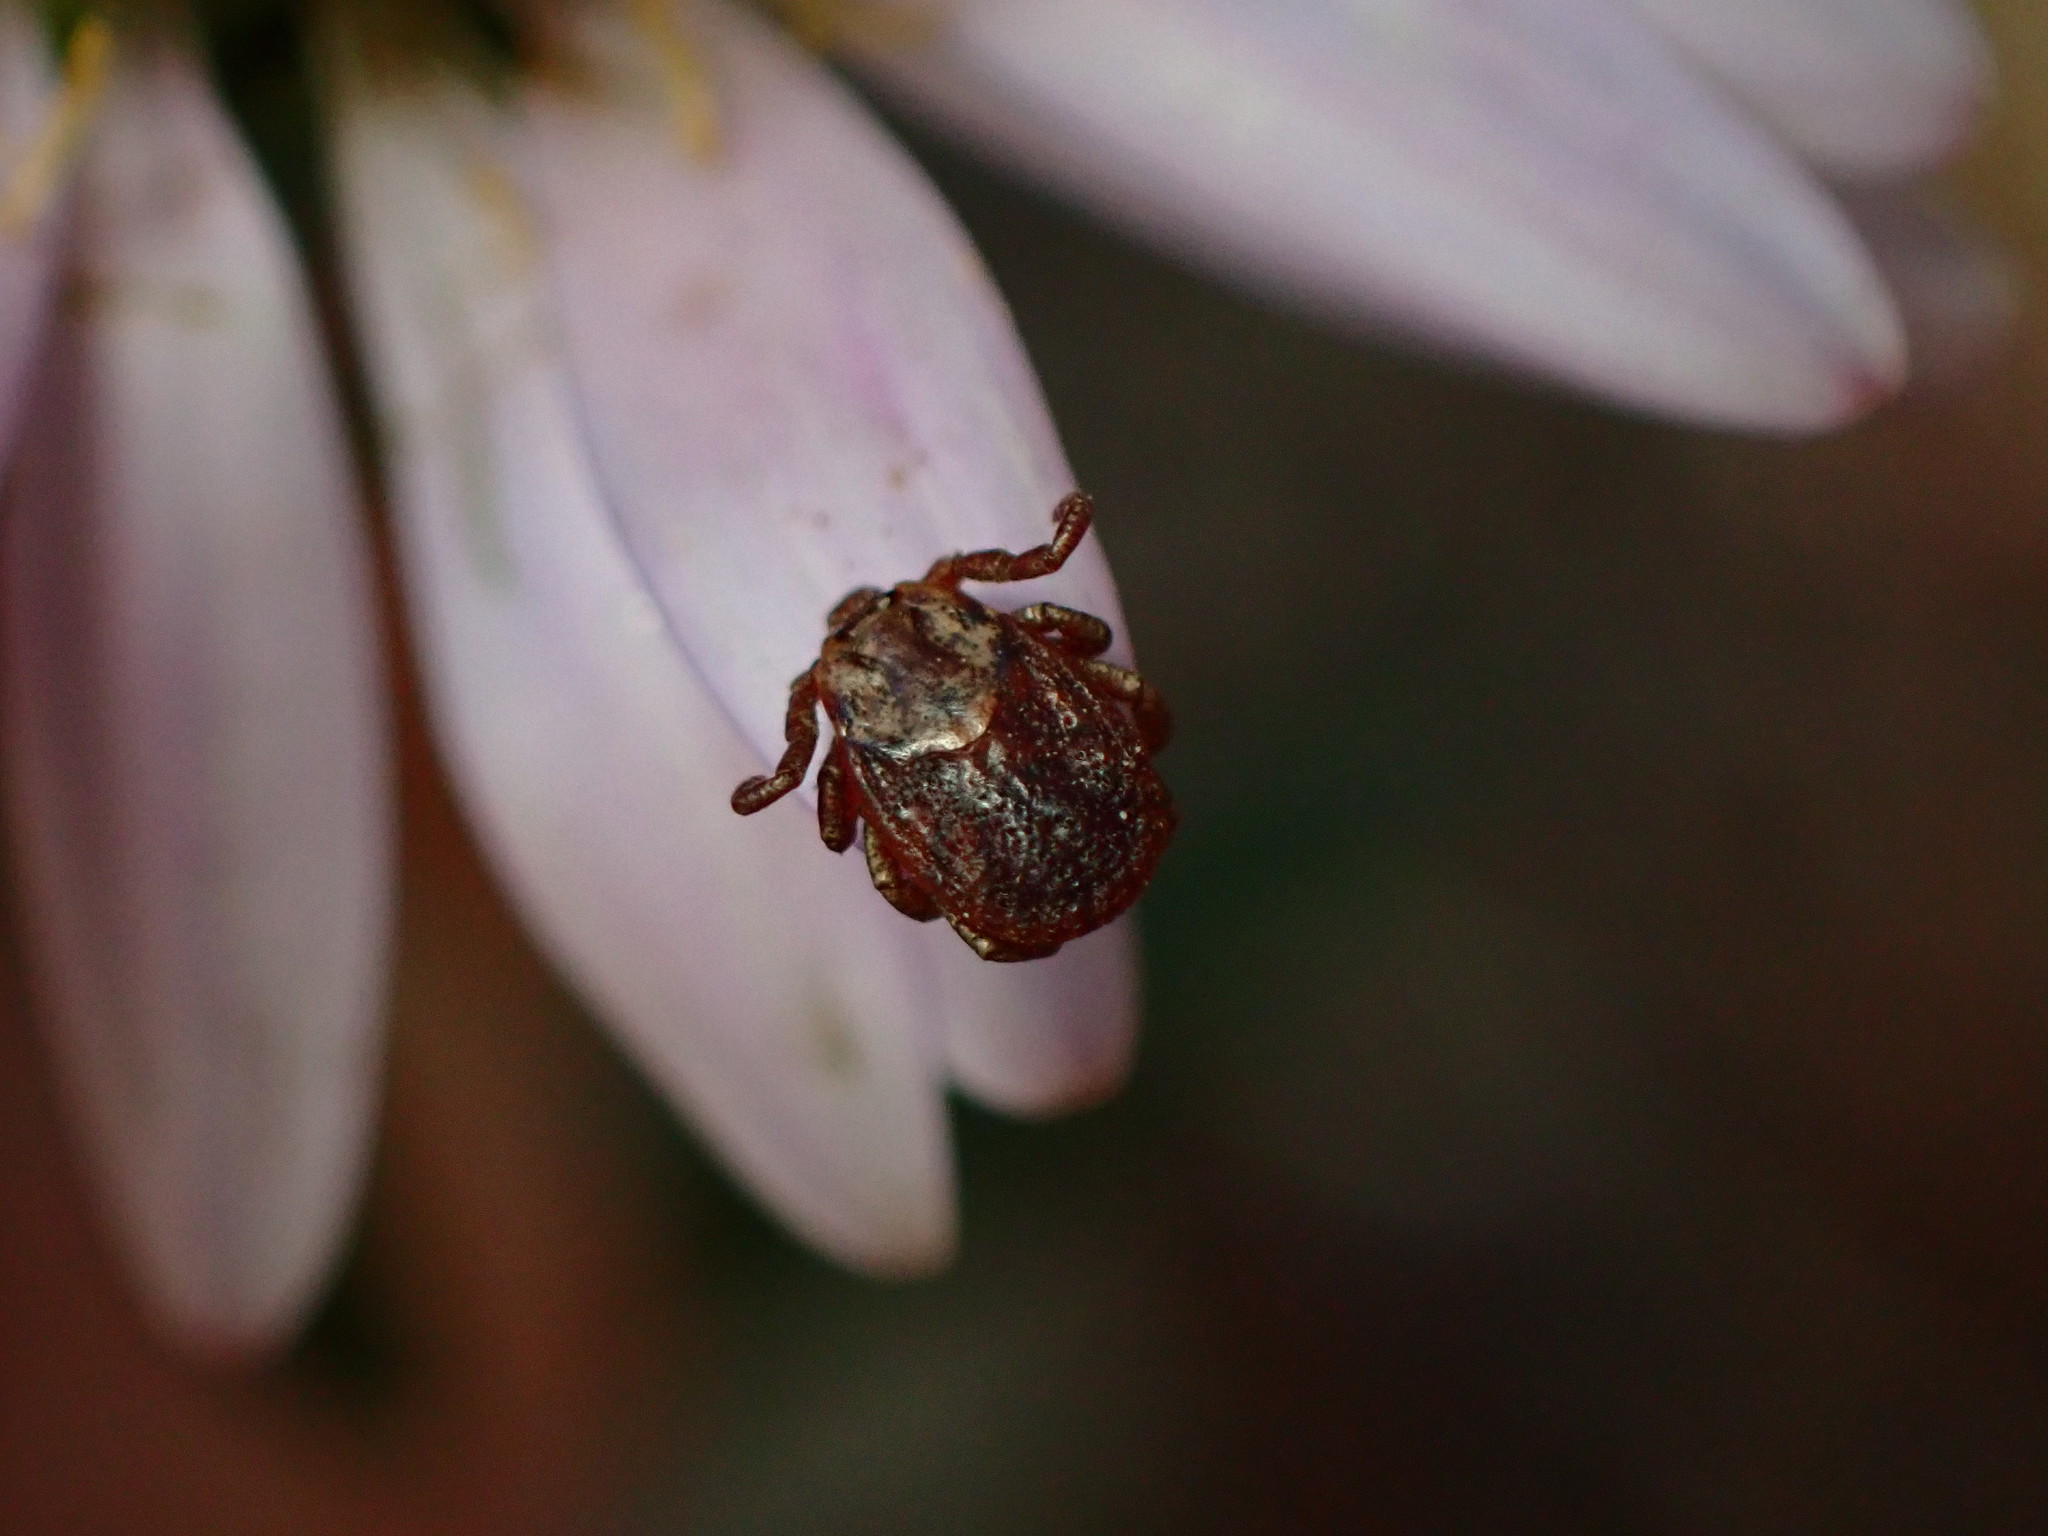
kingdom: Animalia
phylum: Arthropoda
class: Arachnida
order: Ixodida
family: Ixodidae
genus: Dermacentor
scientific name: Dermacentor occidentalis
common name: Net tick
